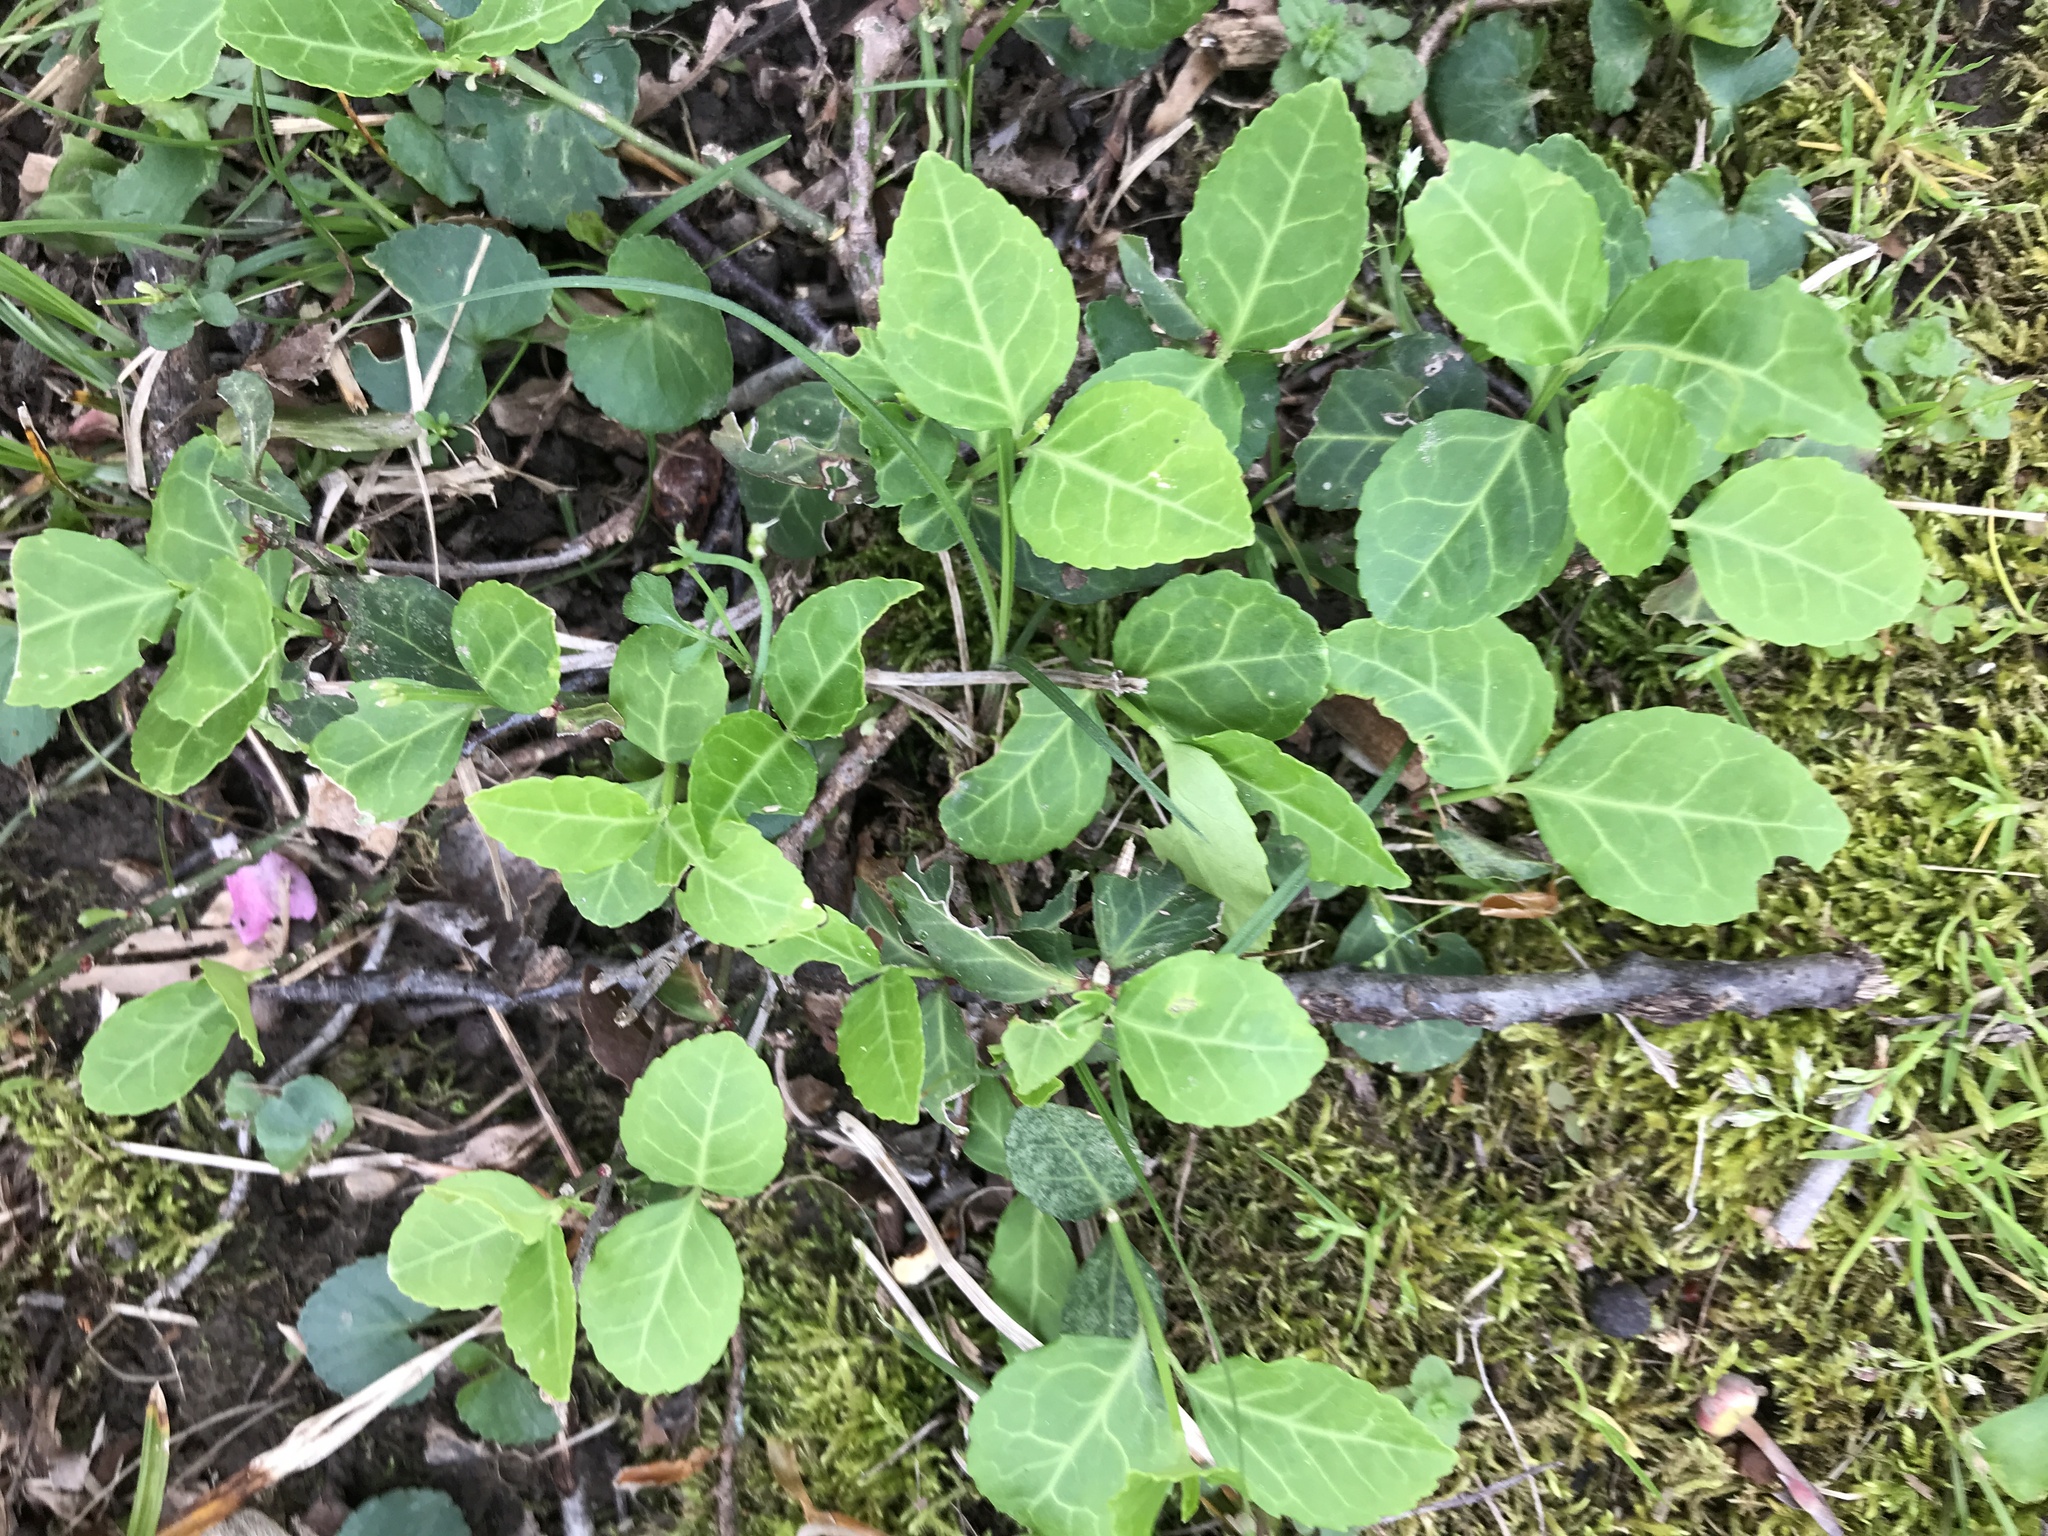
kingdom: Plantae
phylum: Tracheophyta
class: Magnoliopsida
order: Celastrales
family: Celastraceae
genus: Euonymus
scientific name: Euonymus fortunei
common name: Climbing euonymus
